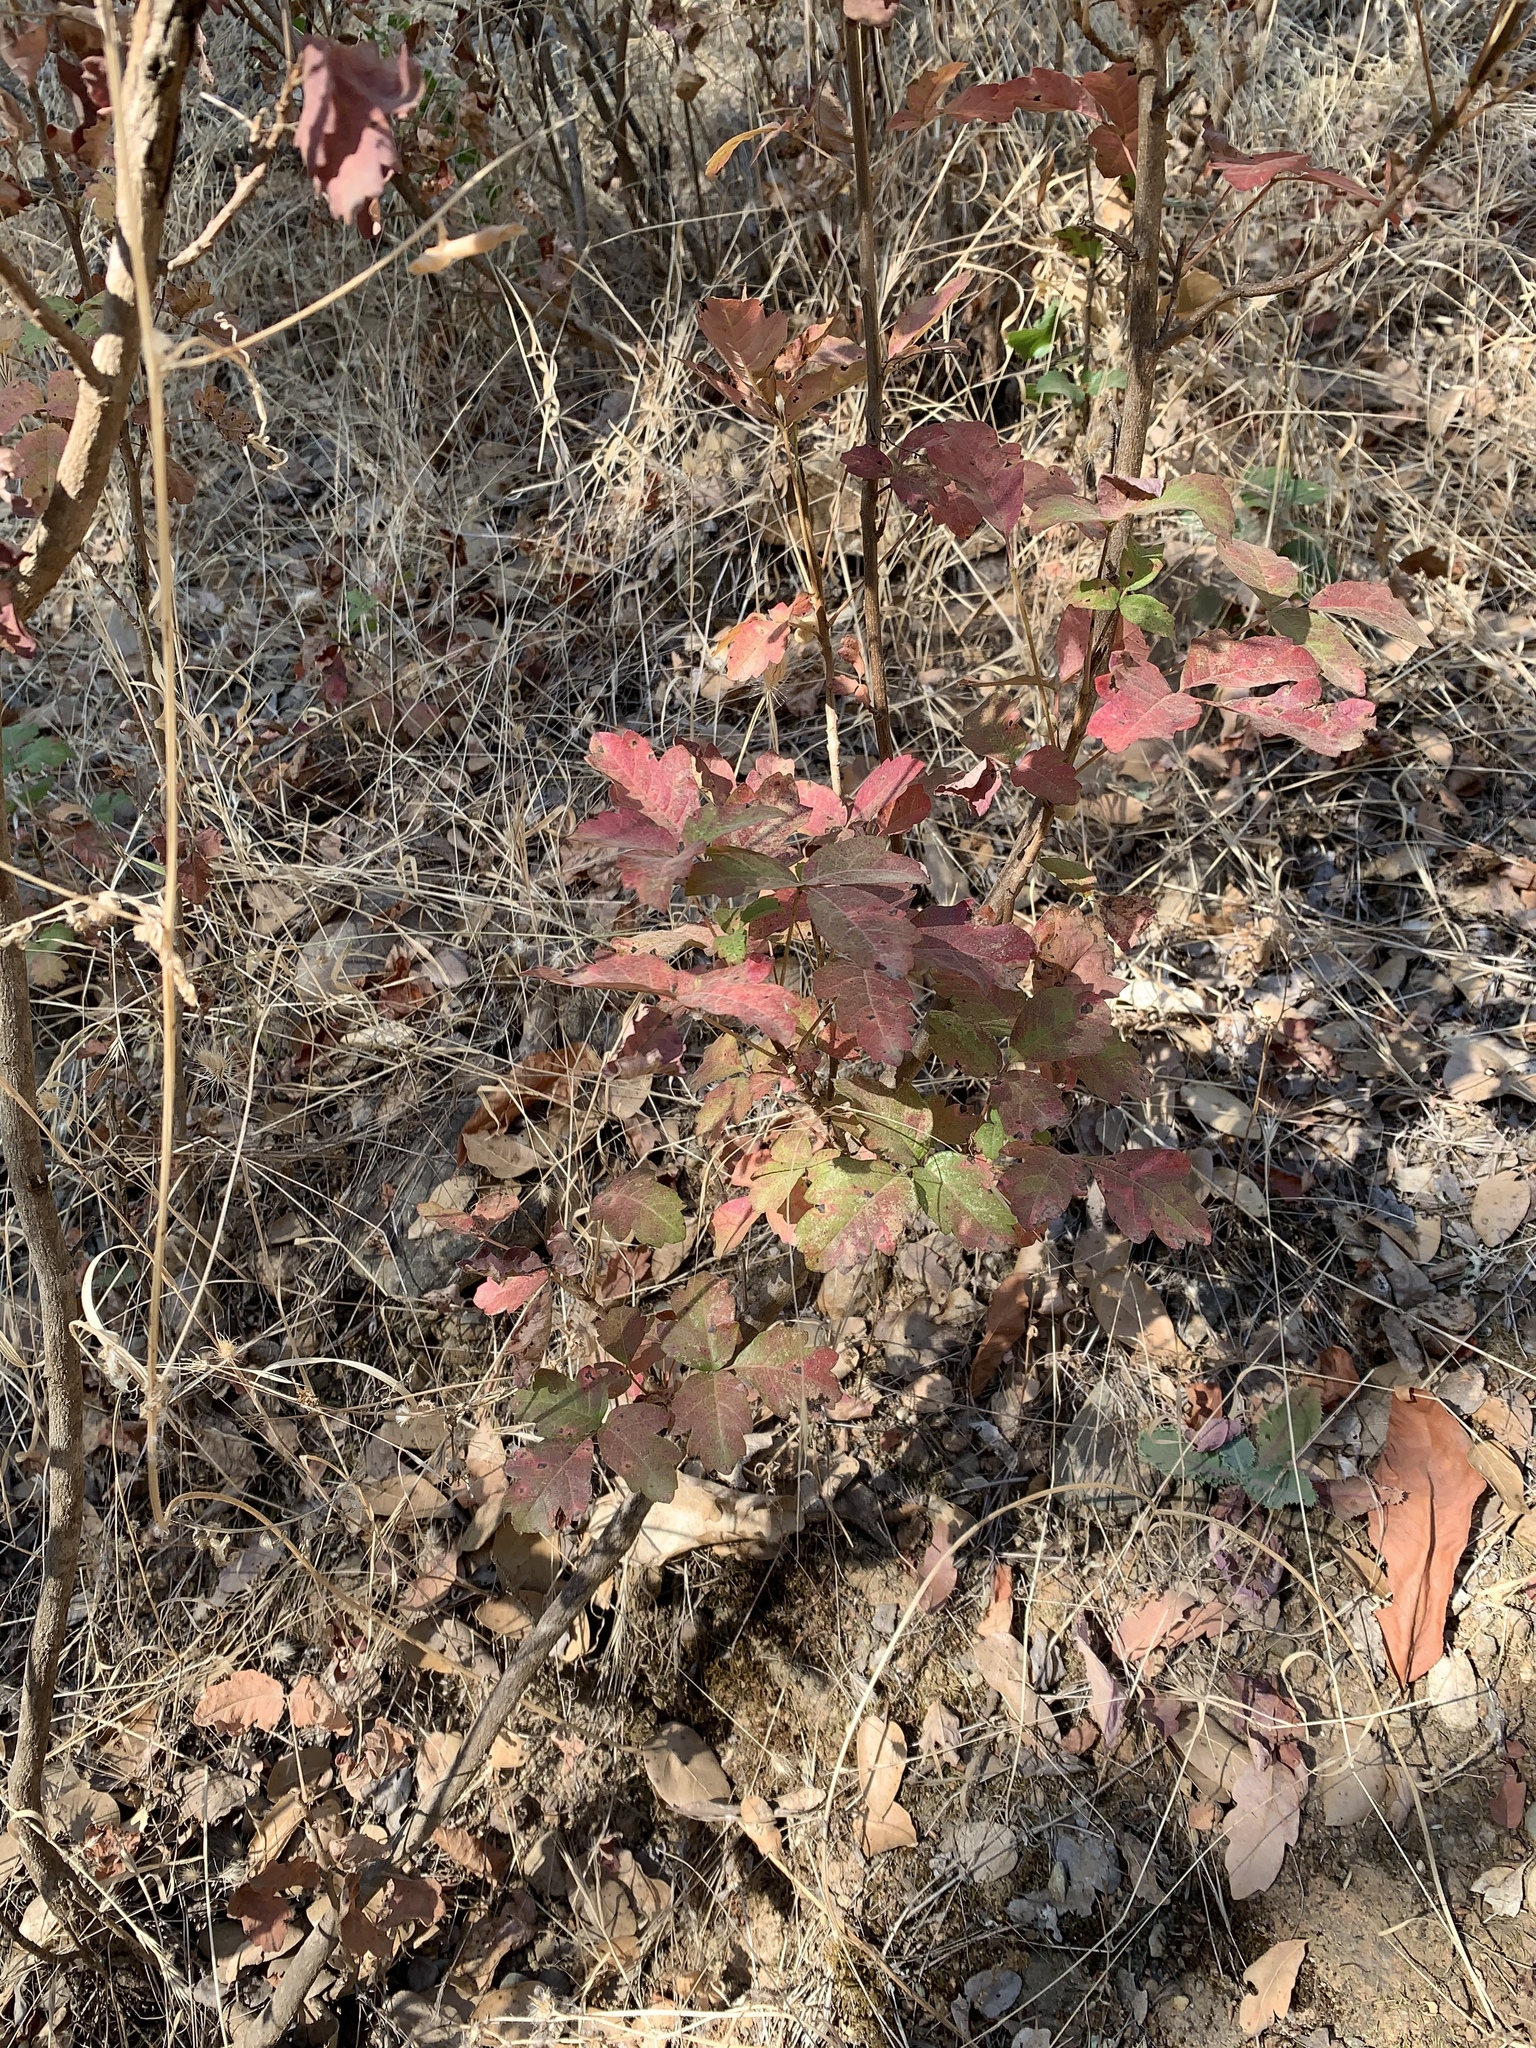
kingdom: Plantae
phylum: Tracheophyta
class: Magnoliopsida
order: Sapindales
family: Anacardiaceae
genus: Toxicodendron
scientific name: Toxicodendron diversilobum
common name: Pacific poison-oak
